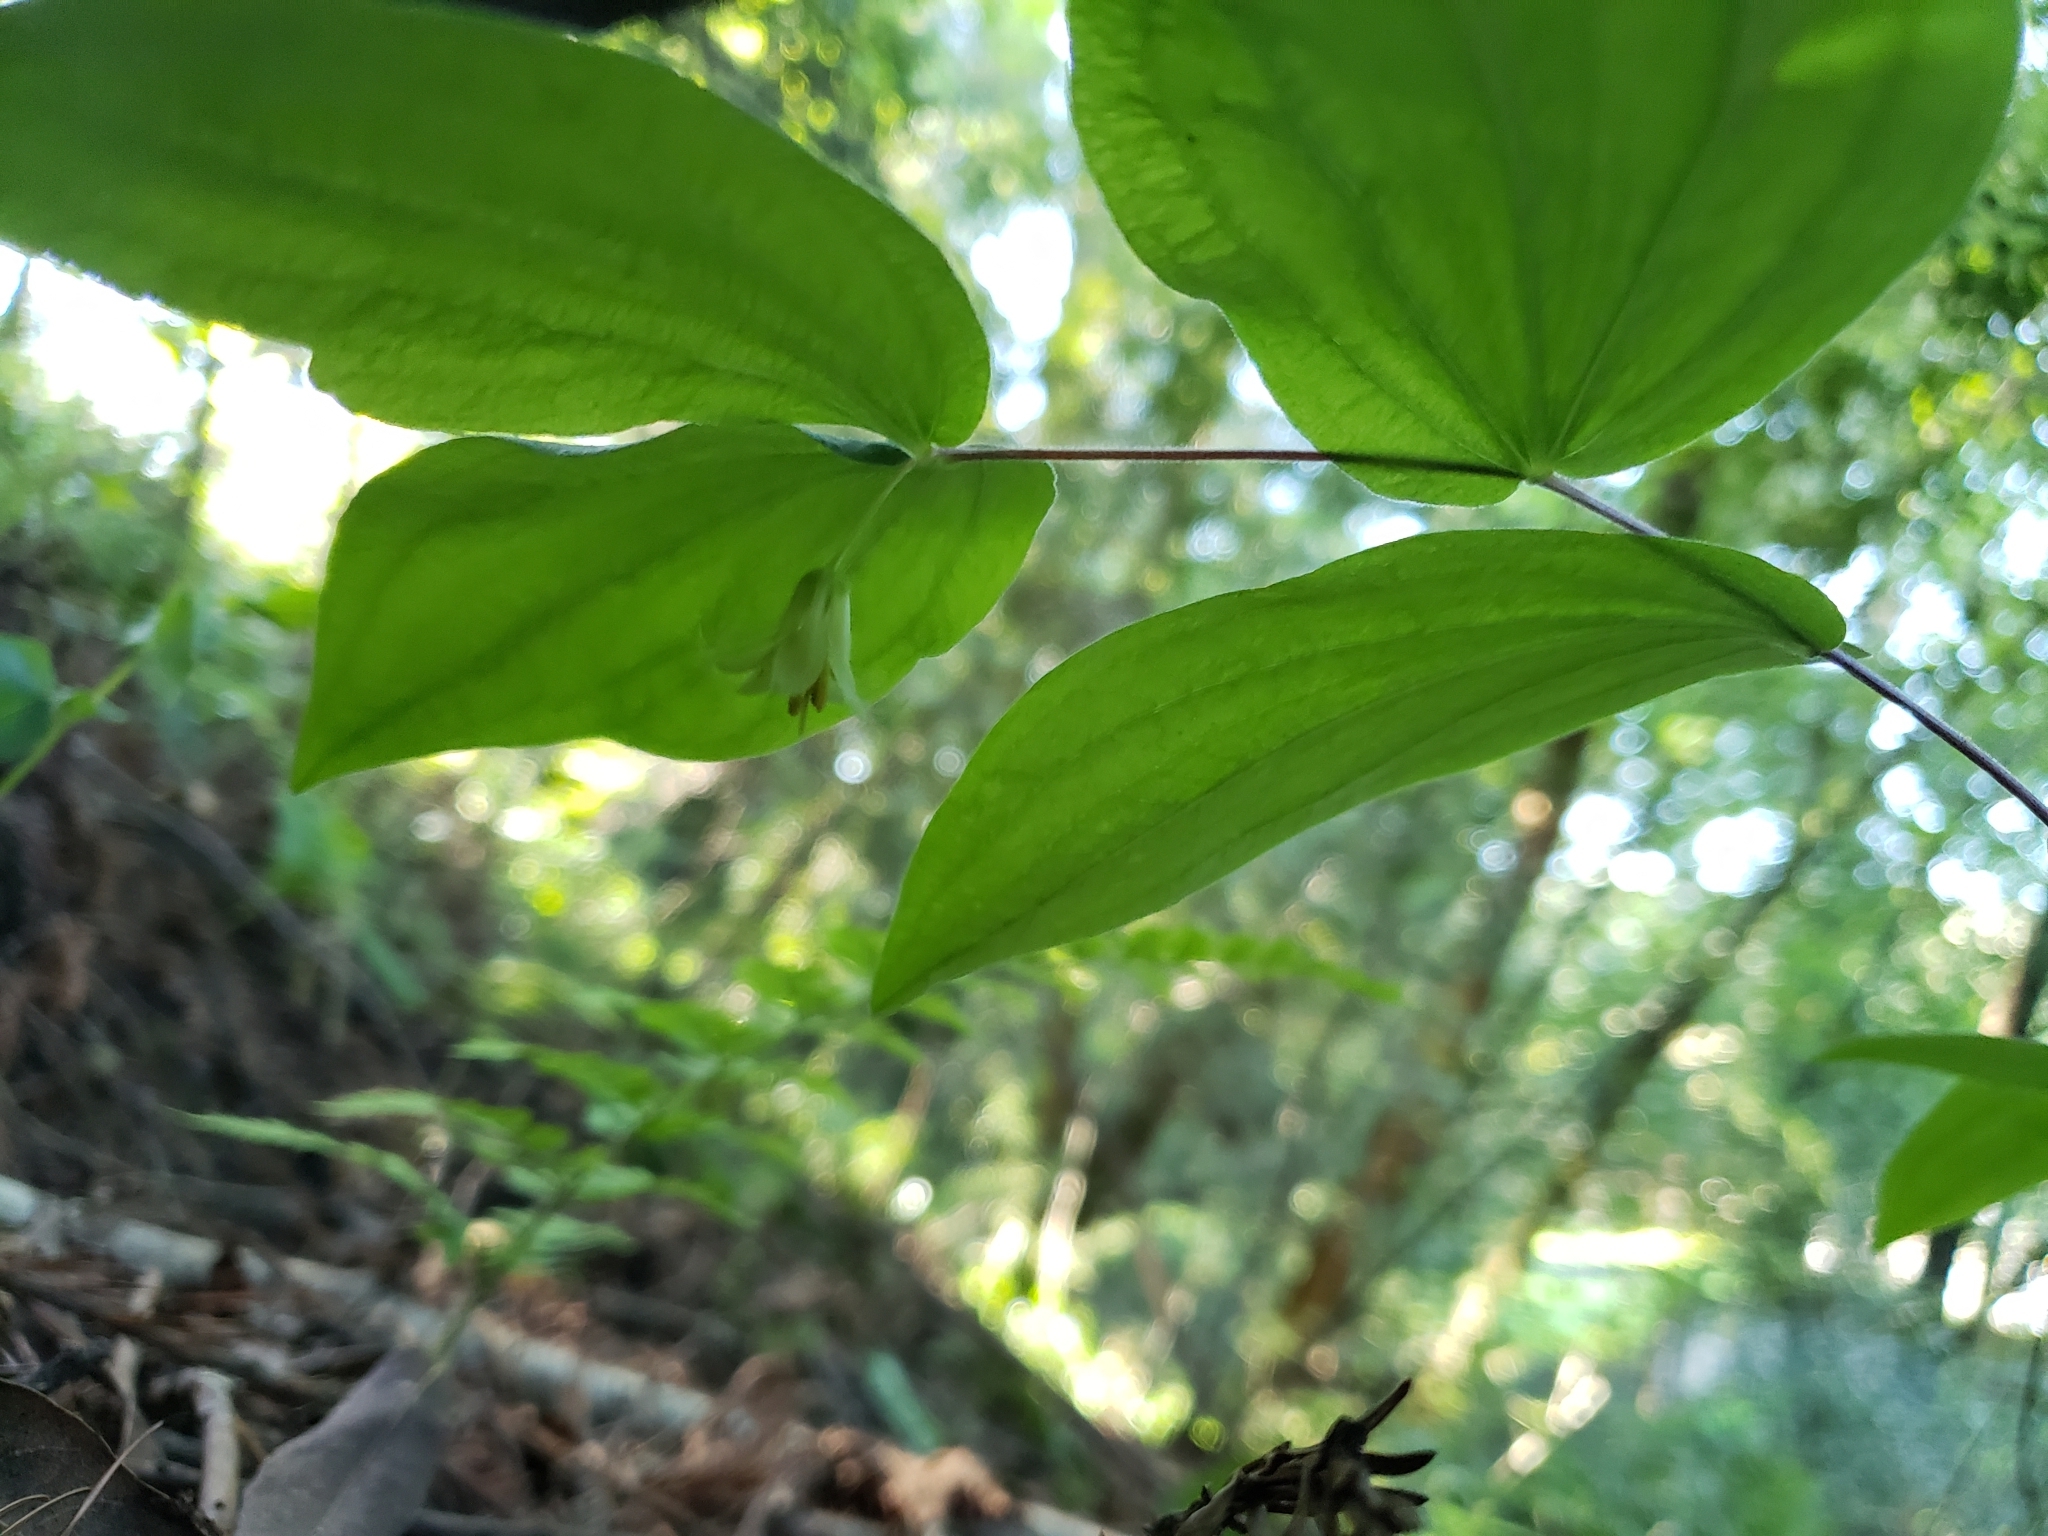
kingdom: Plantae
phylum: Tracheophyta
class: Liliopsida
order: Liliales
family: Liliaceae
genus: Prosartes
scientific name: Prosartes hookeri
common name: Fairy-bells
